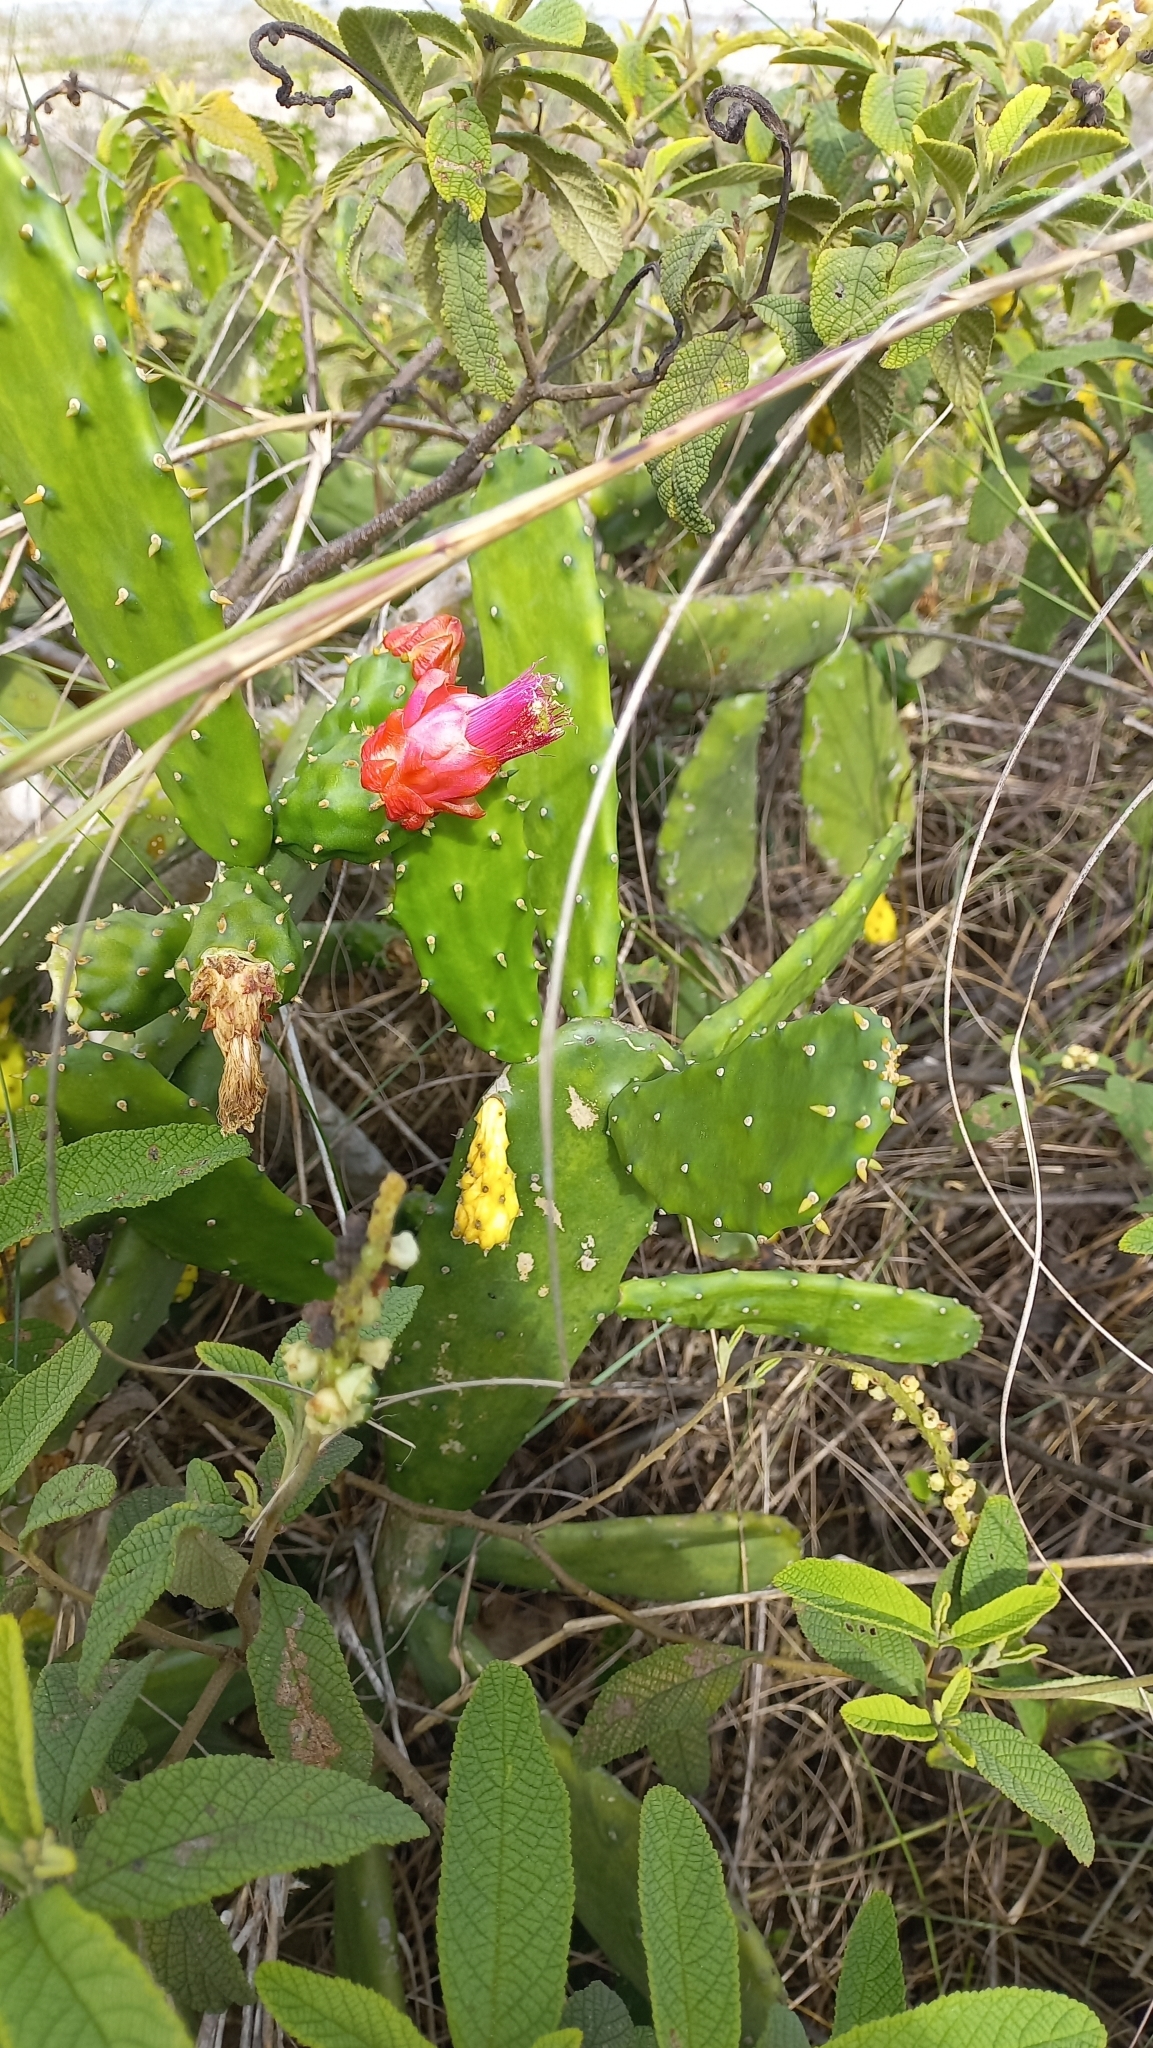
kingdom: Plantae
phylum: Tracheophyta
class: Magnoliopsida
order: Caryophyllales
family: Cactaceae
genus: Opuntia
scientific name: Opuntia cochenillifera
